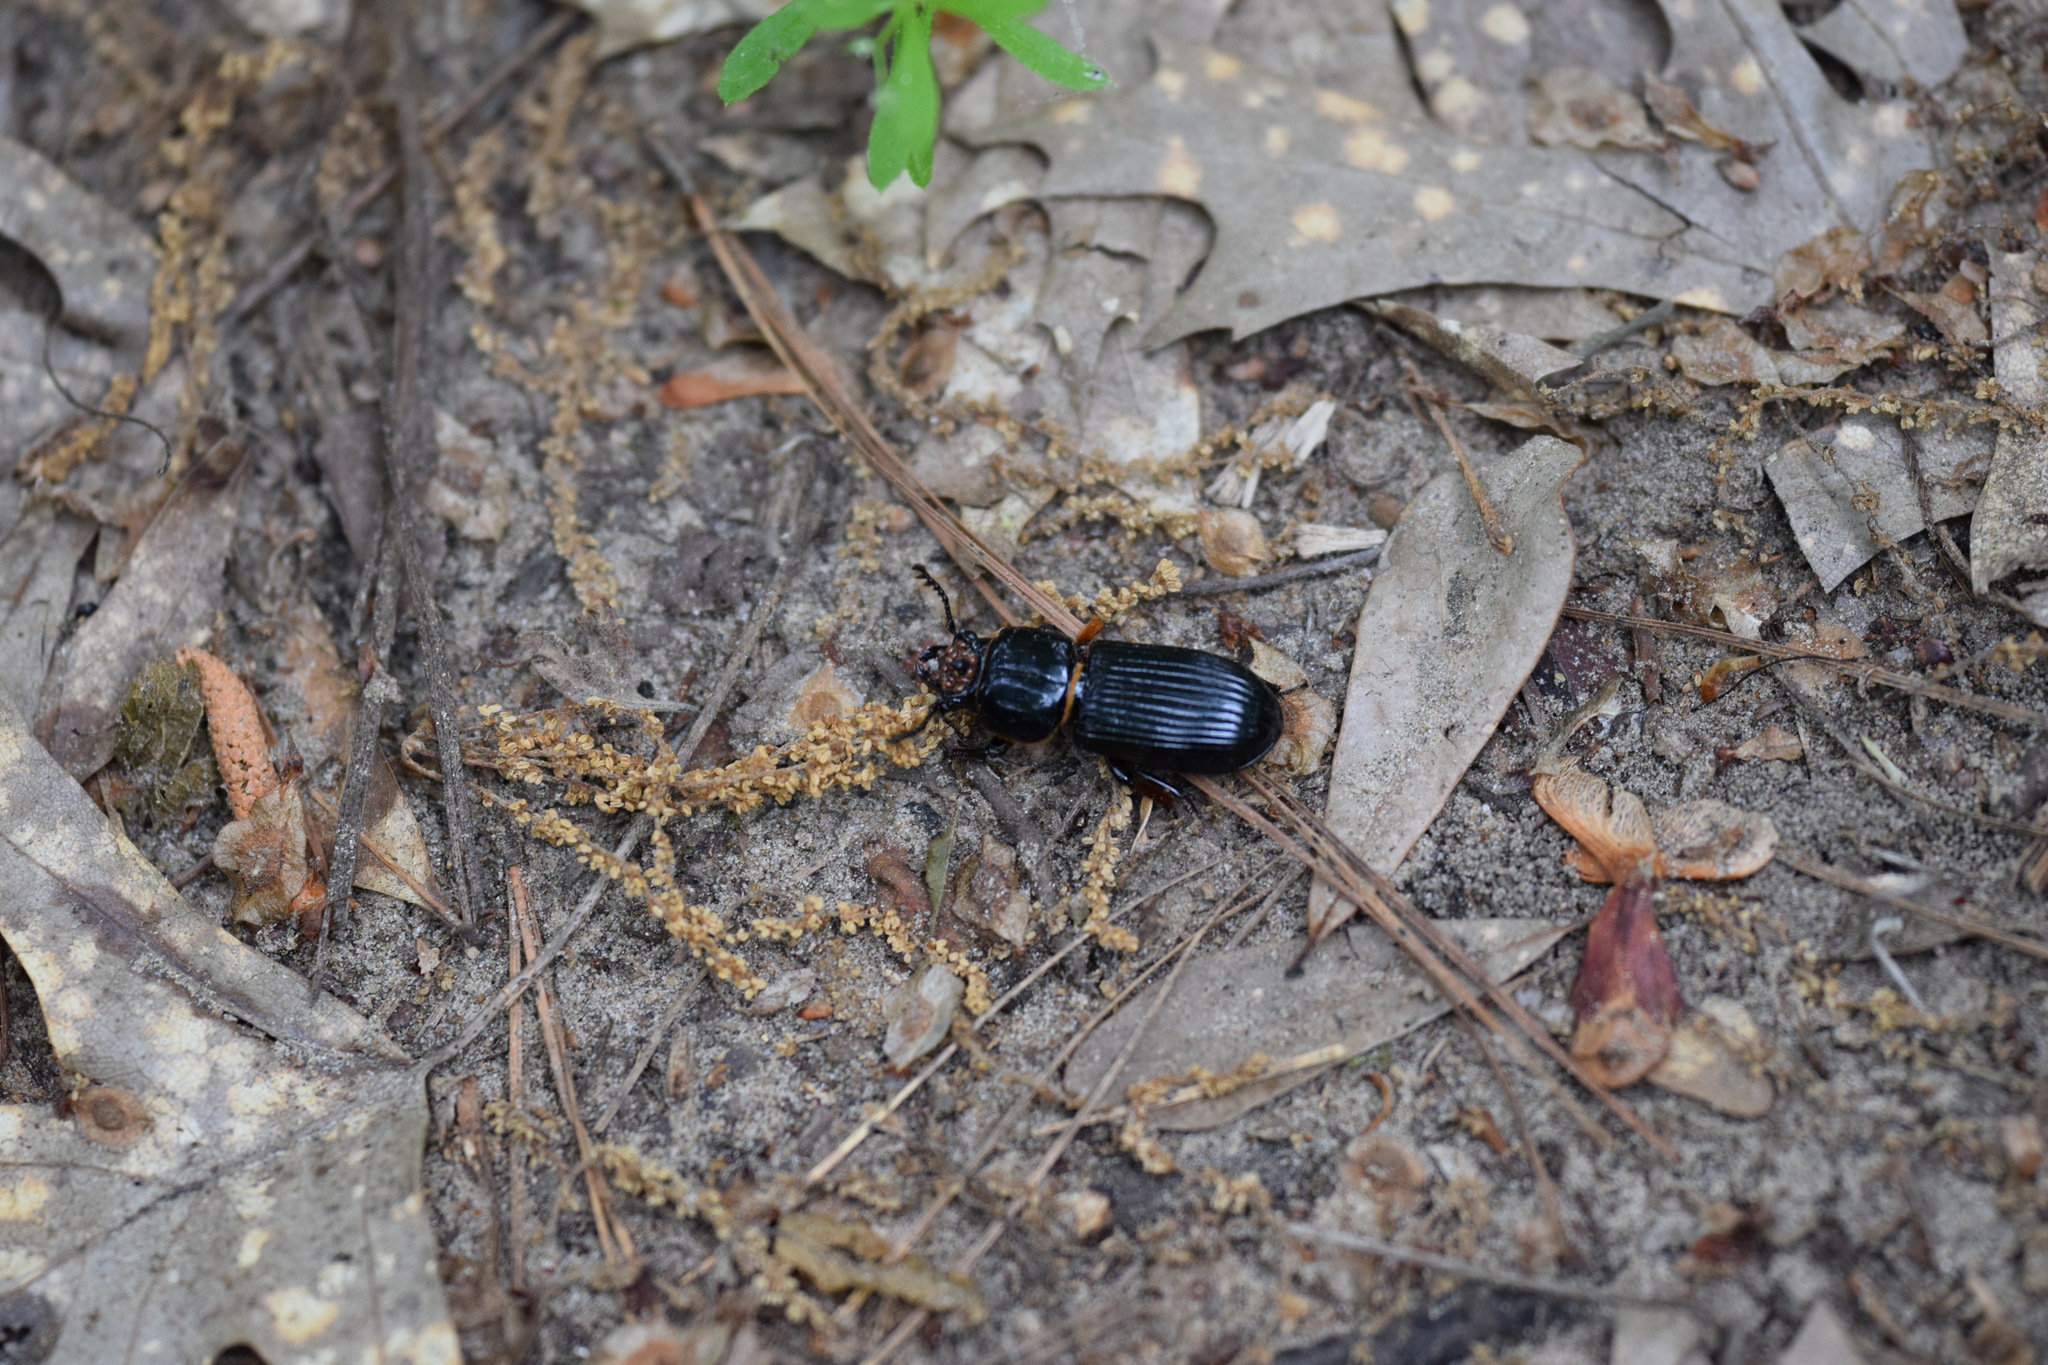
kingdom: Animalia
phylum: Arthropoda
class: Insecta
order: Coleoptera
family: Passalidae
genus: Odontotaenius
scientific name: Odontotaenius disjunctus
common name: Patent leather beetle
